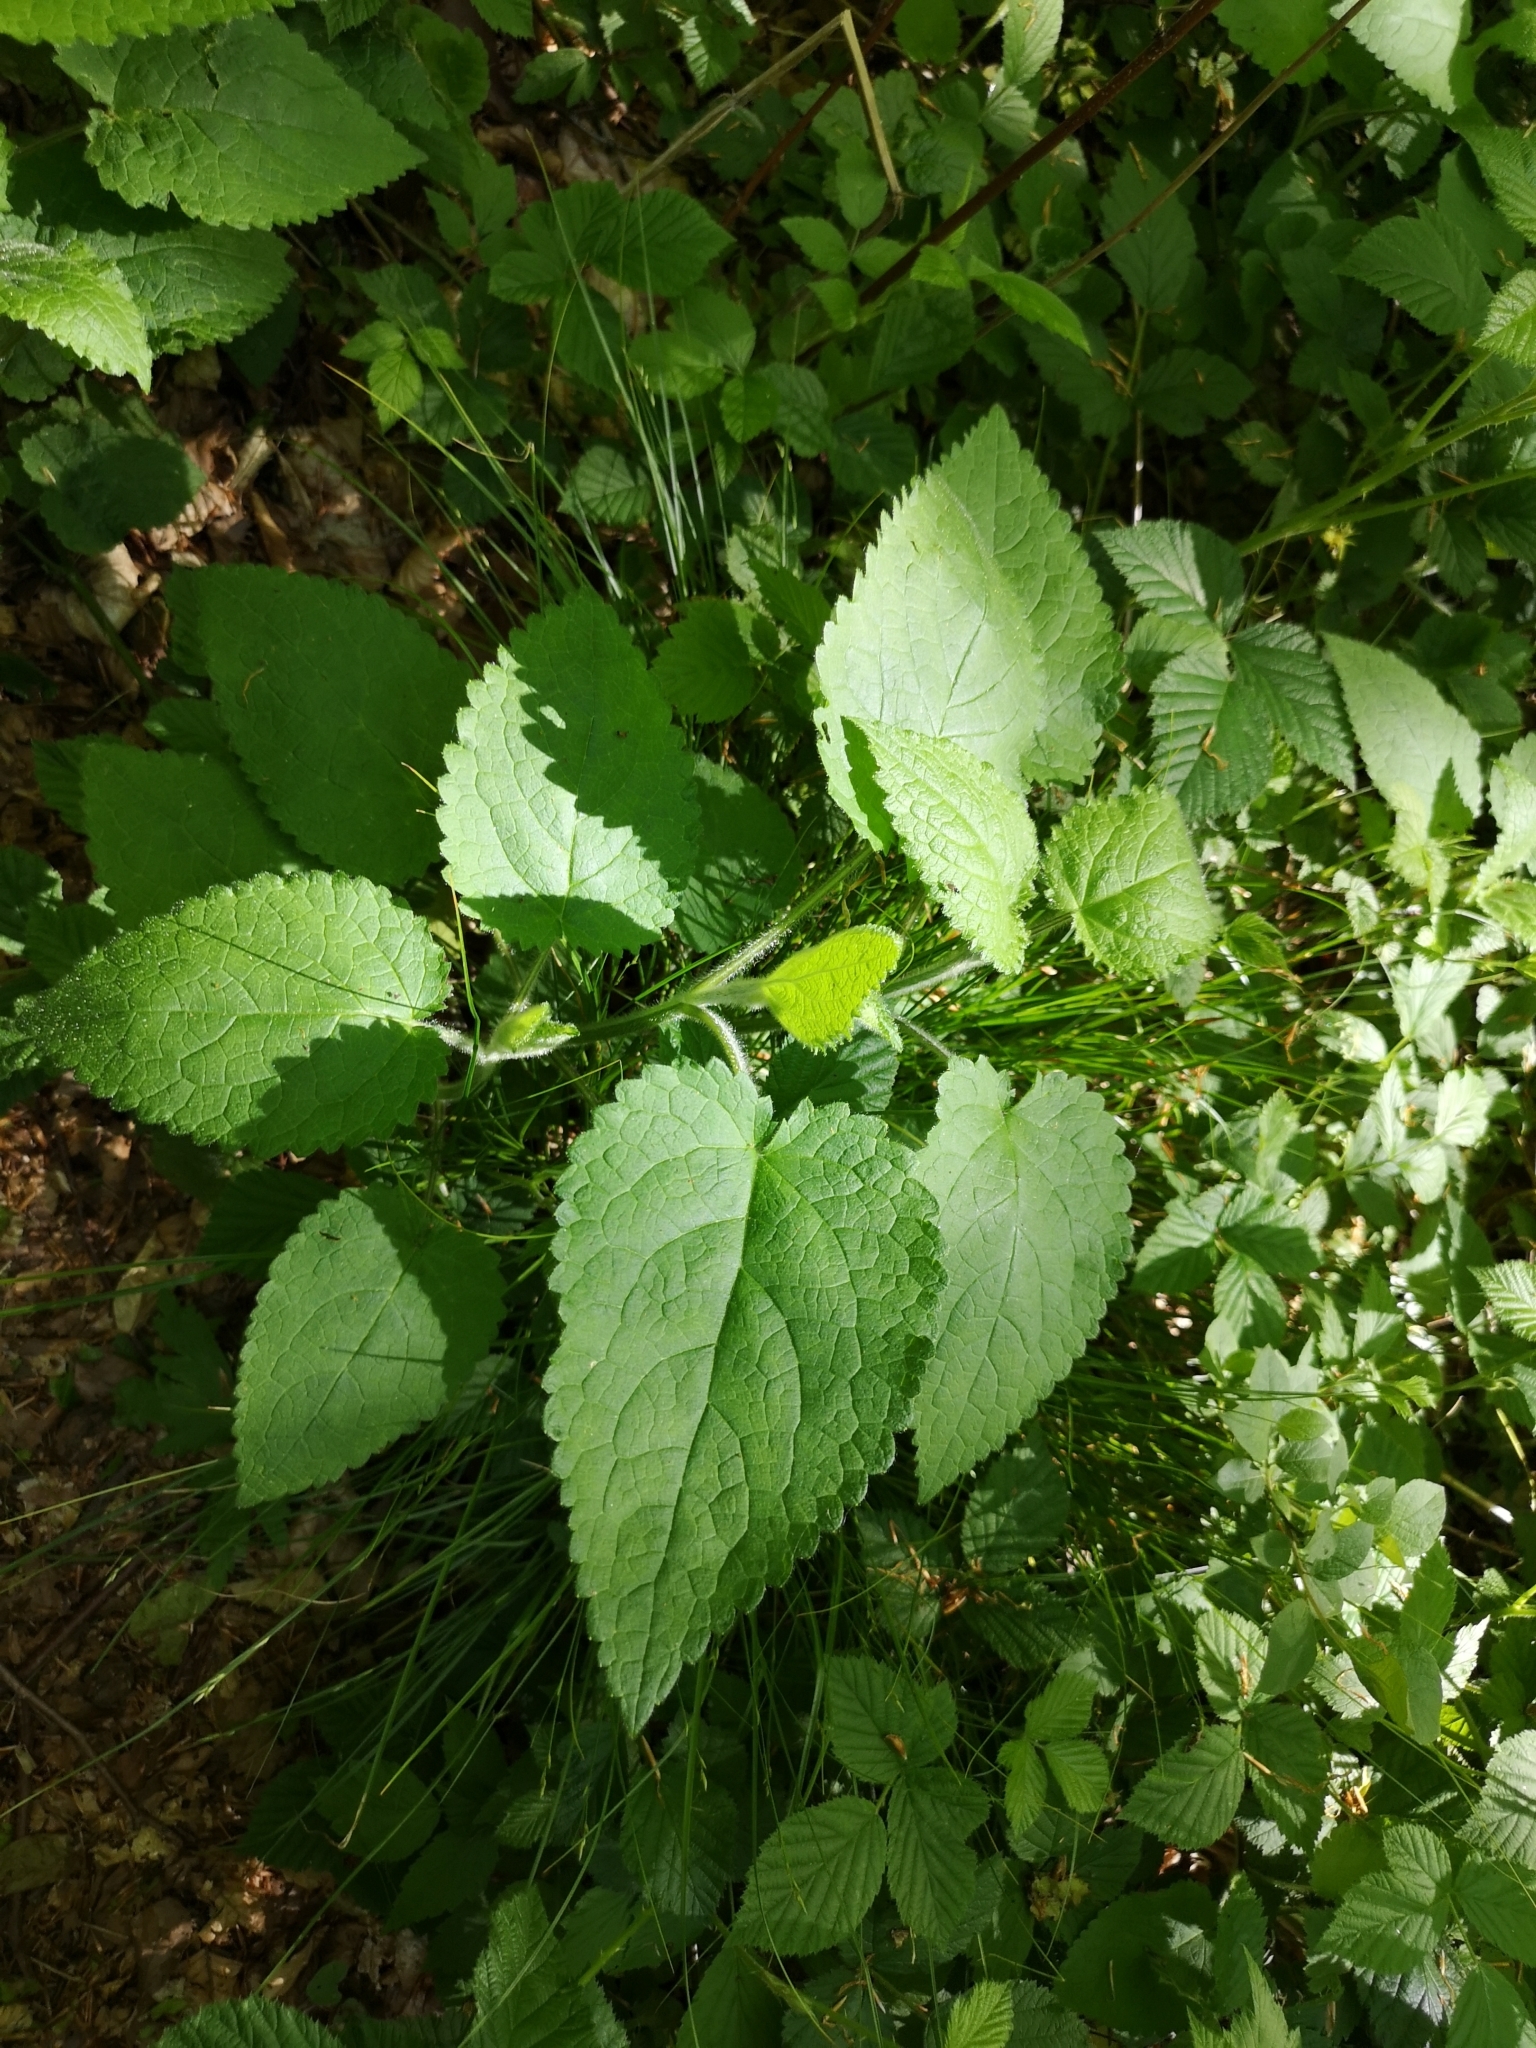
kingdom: Plantae
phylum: Tracheophyta
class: Magnoliopsida
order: Lamiales
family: Lamiaceae
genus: Stachys
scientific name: Stachys sylvatica
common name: Hedge woundwort
